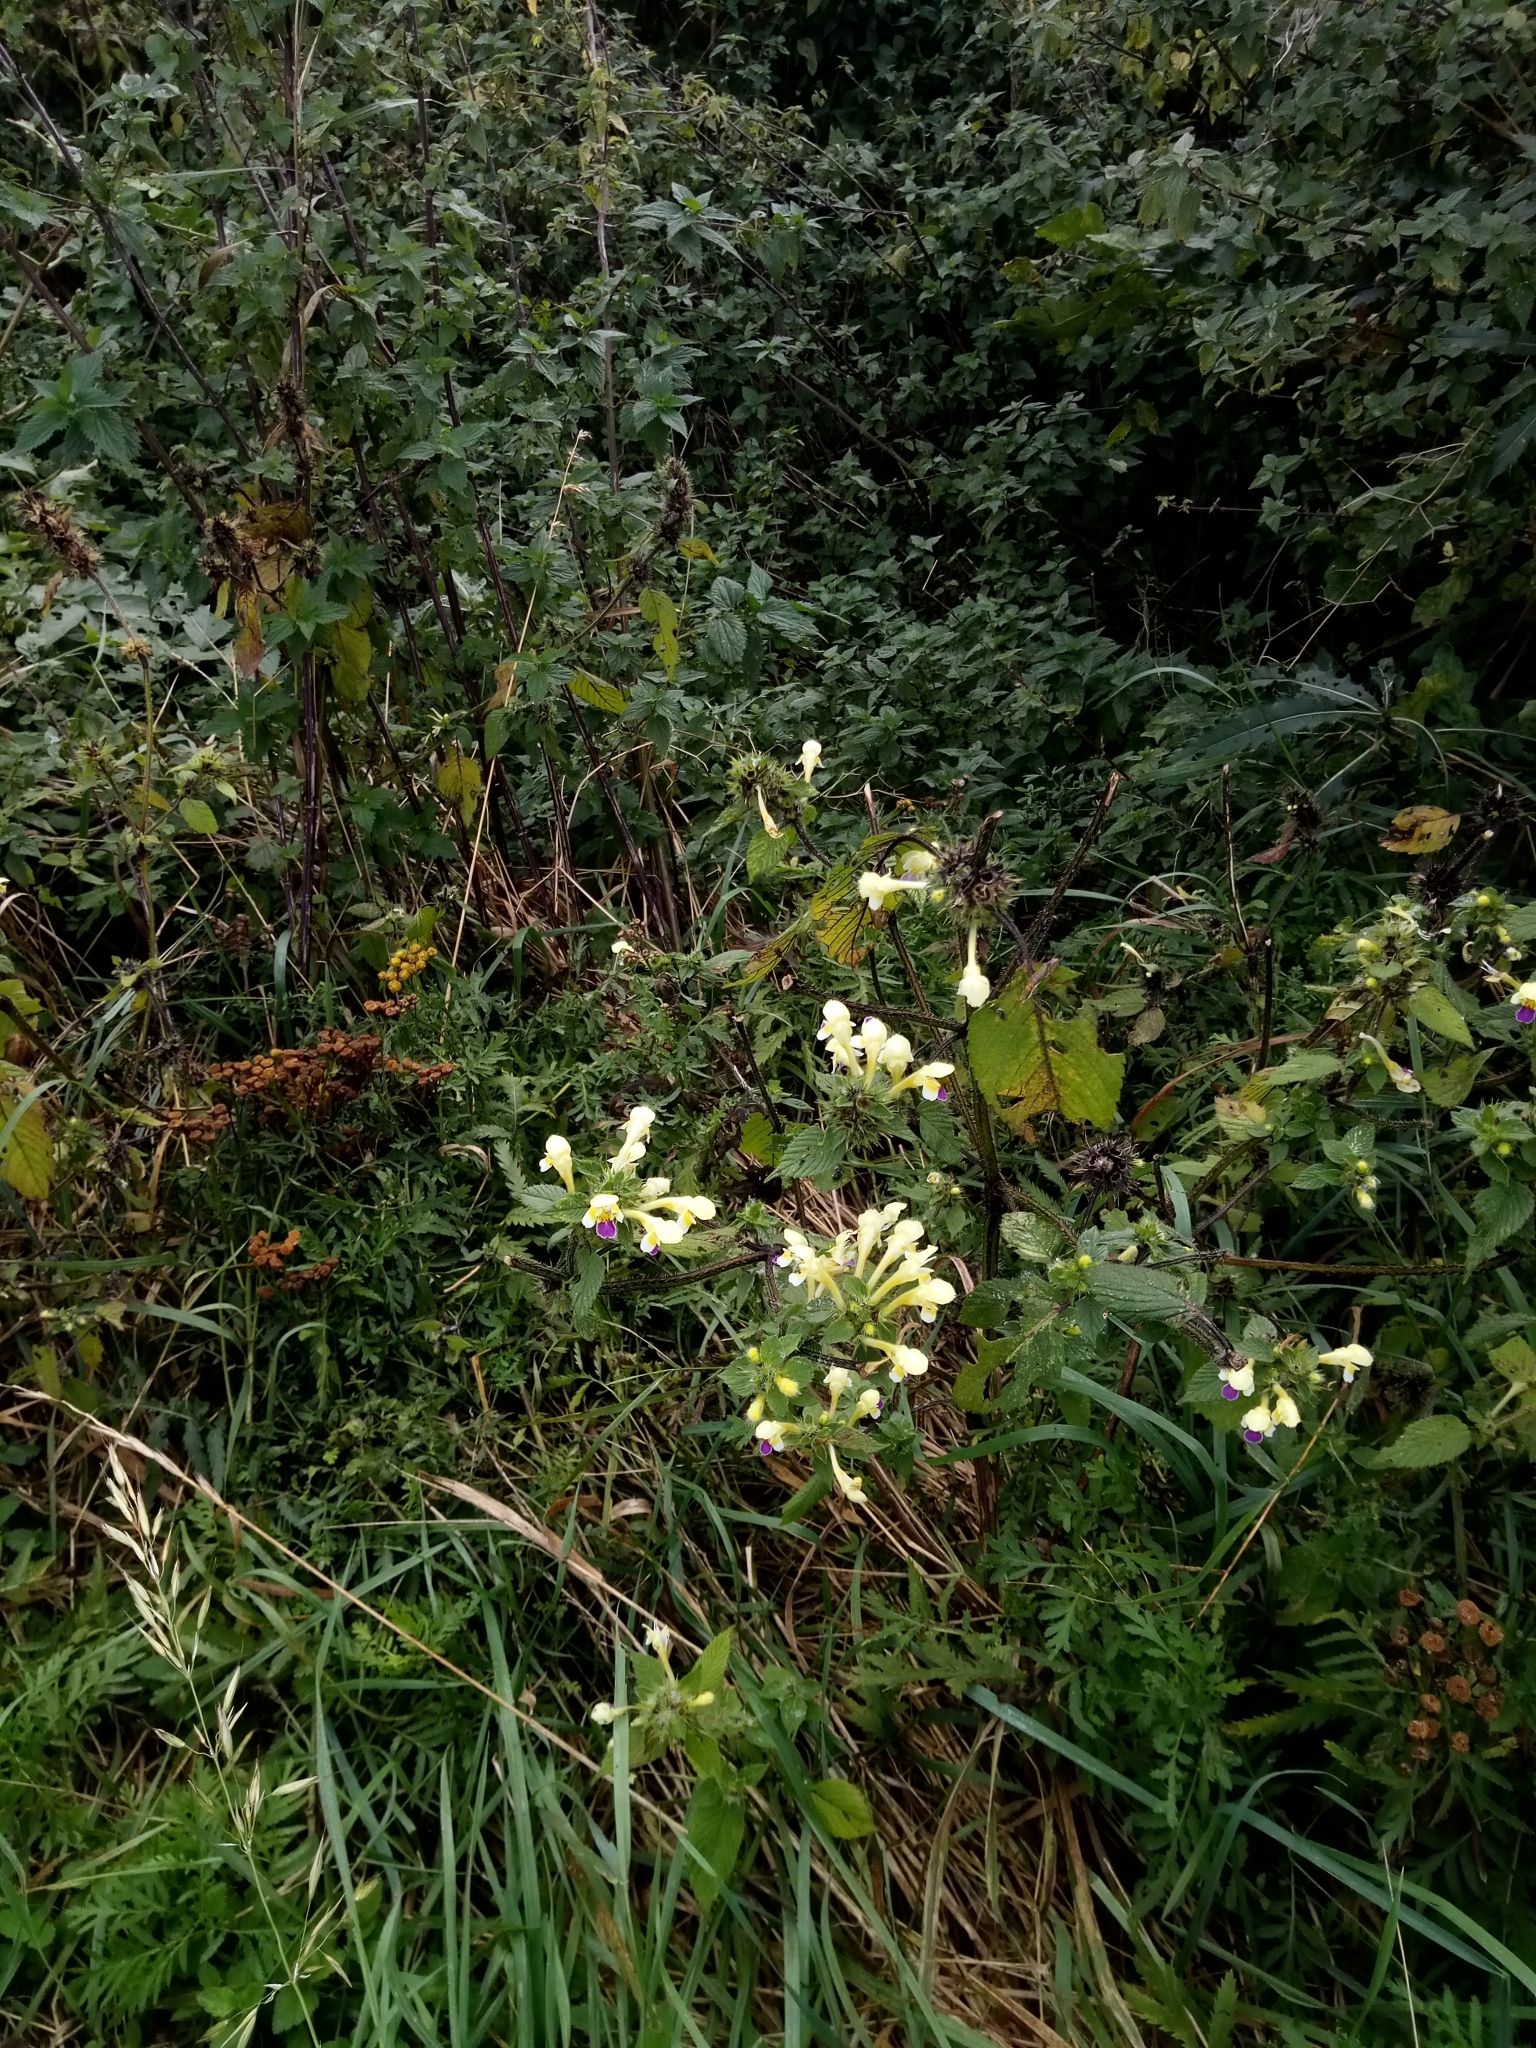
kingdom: Plantae
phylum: Tracheophyta
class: Magnoliopsida
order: Lamiales
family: Lamiaceae
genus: Galeopsis
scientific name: Galeopsis speciosa
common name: Large-flowered hemp-nettle
